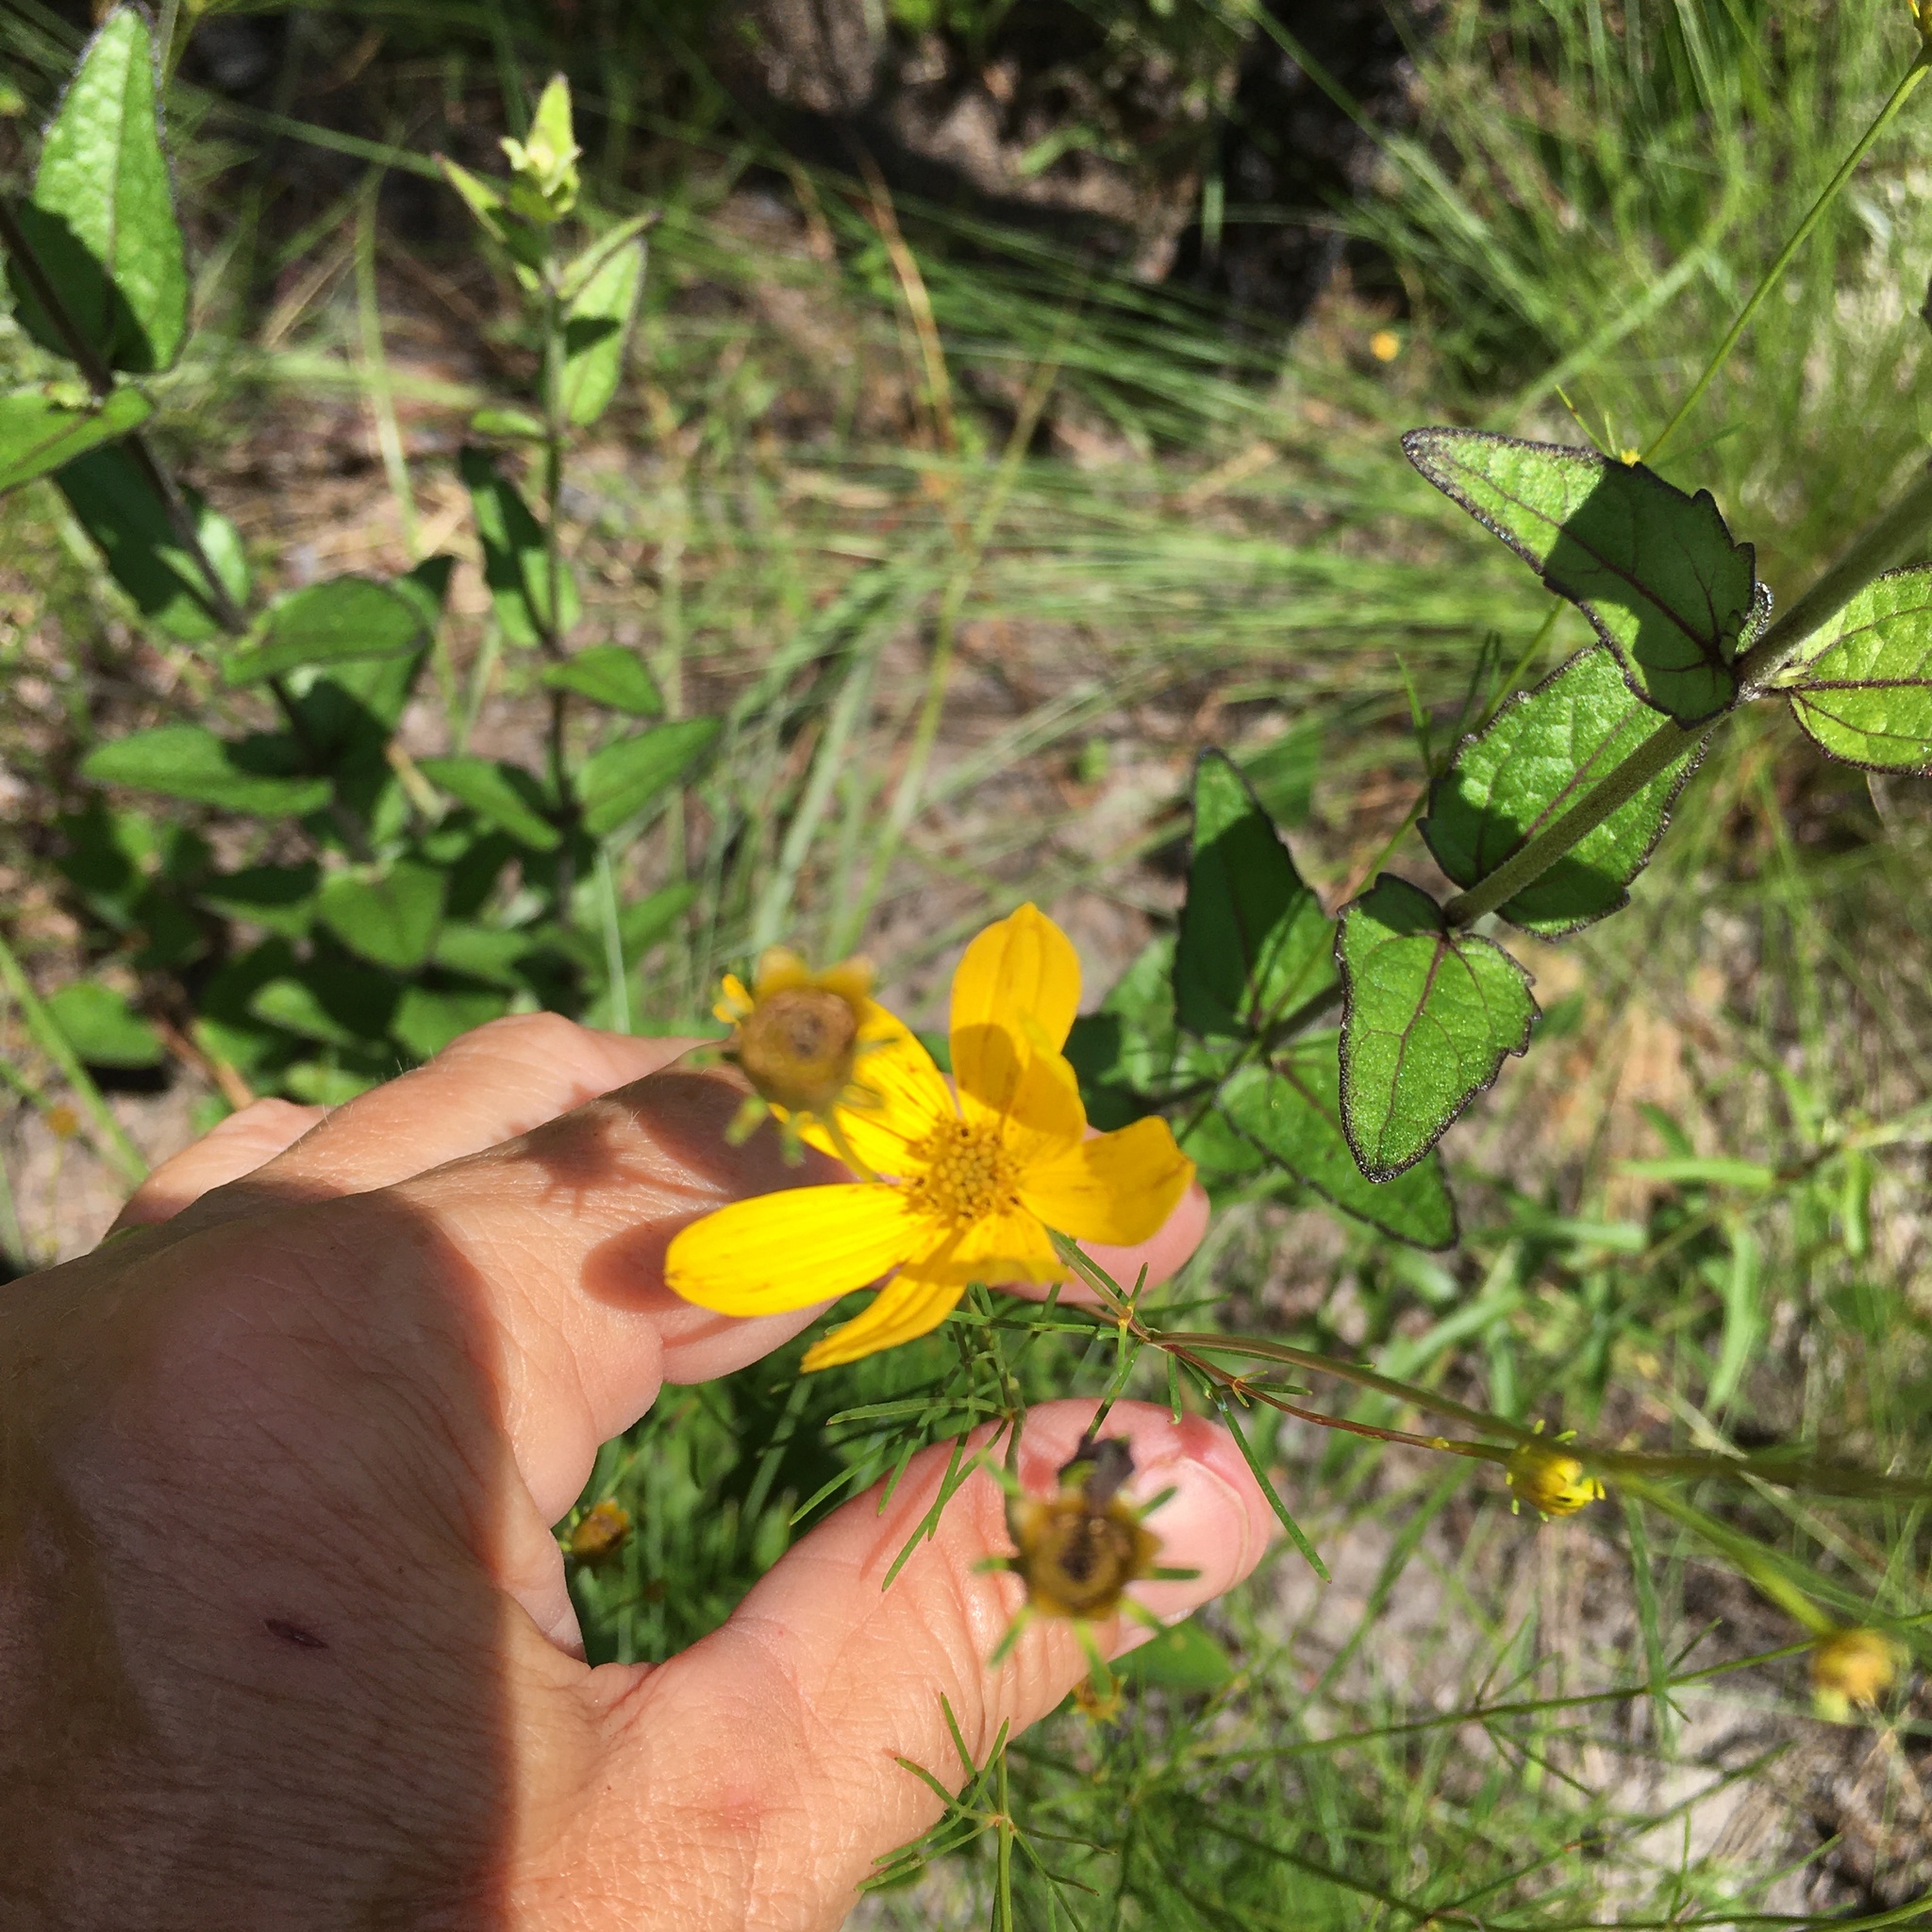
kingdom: Plantae
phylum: Tracheophyta
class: Magnoliopsida
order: Asterales
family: Asteraceae
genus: Coreopsis
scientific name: Coreopsis verticillata
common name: Whorled tickseed
